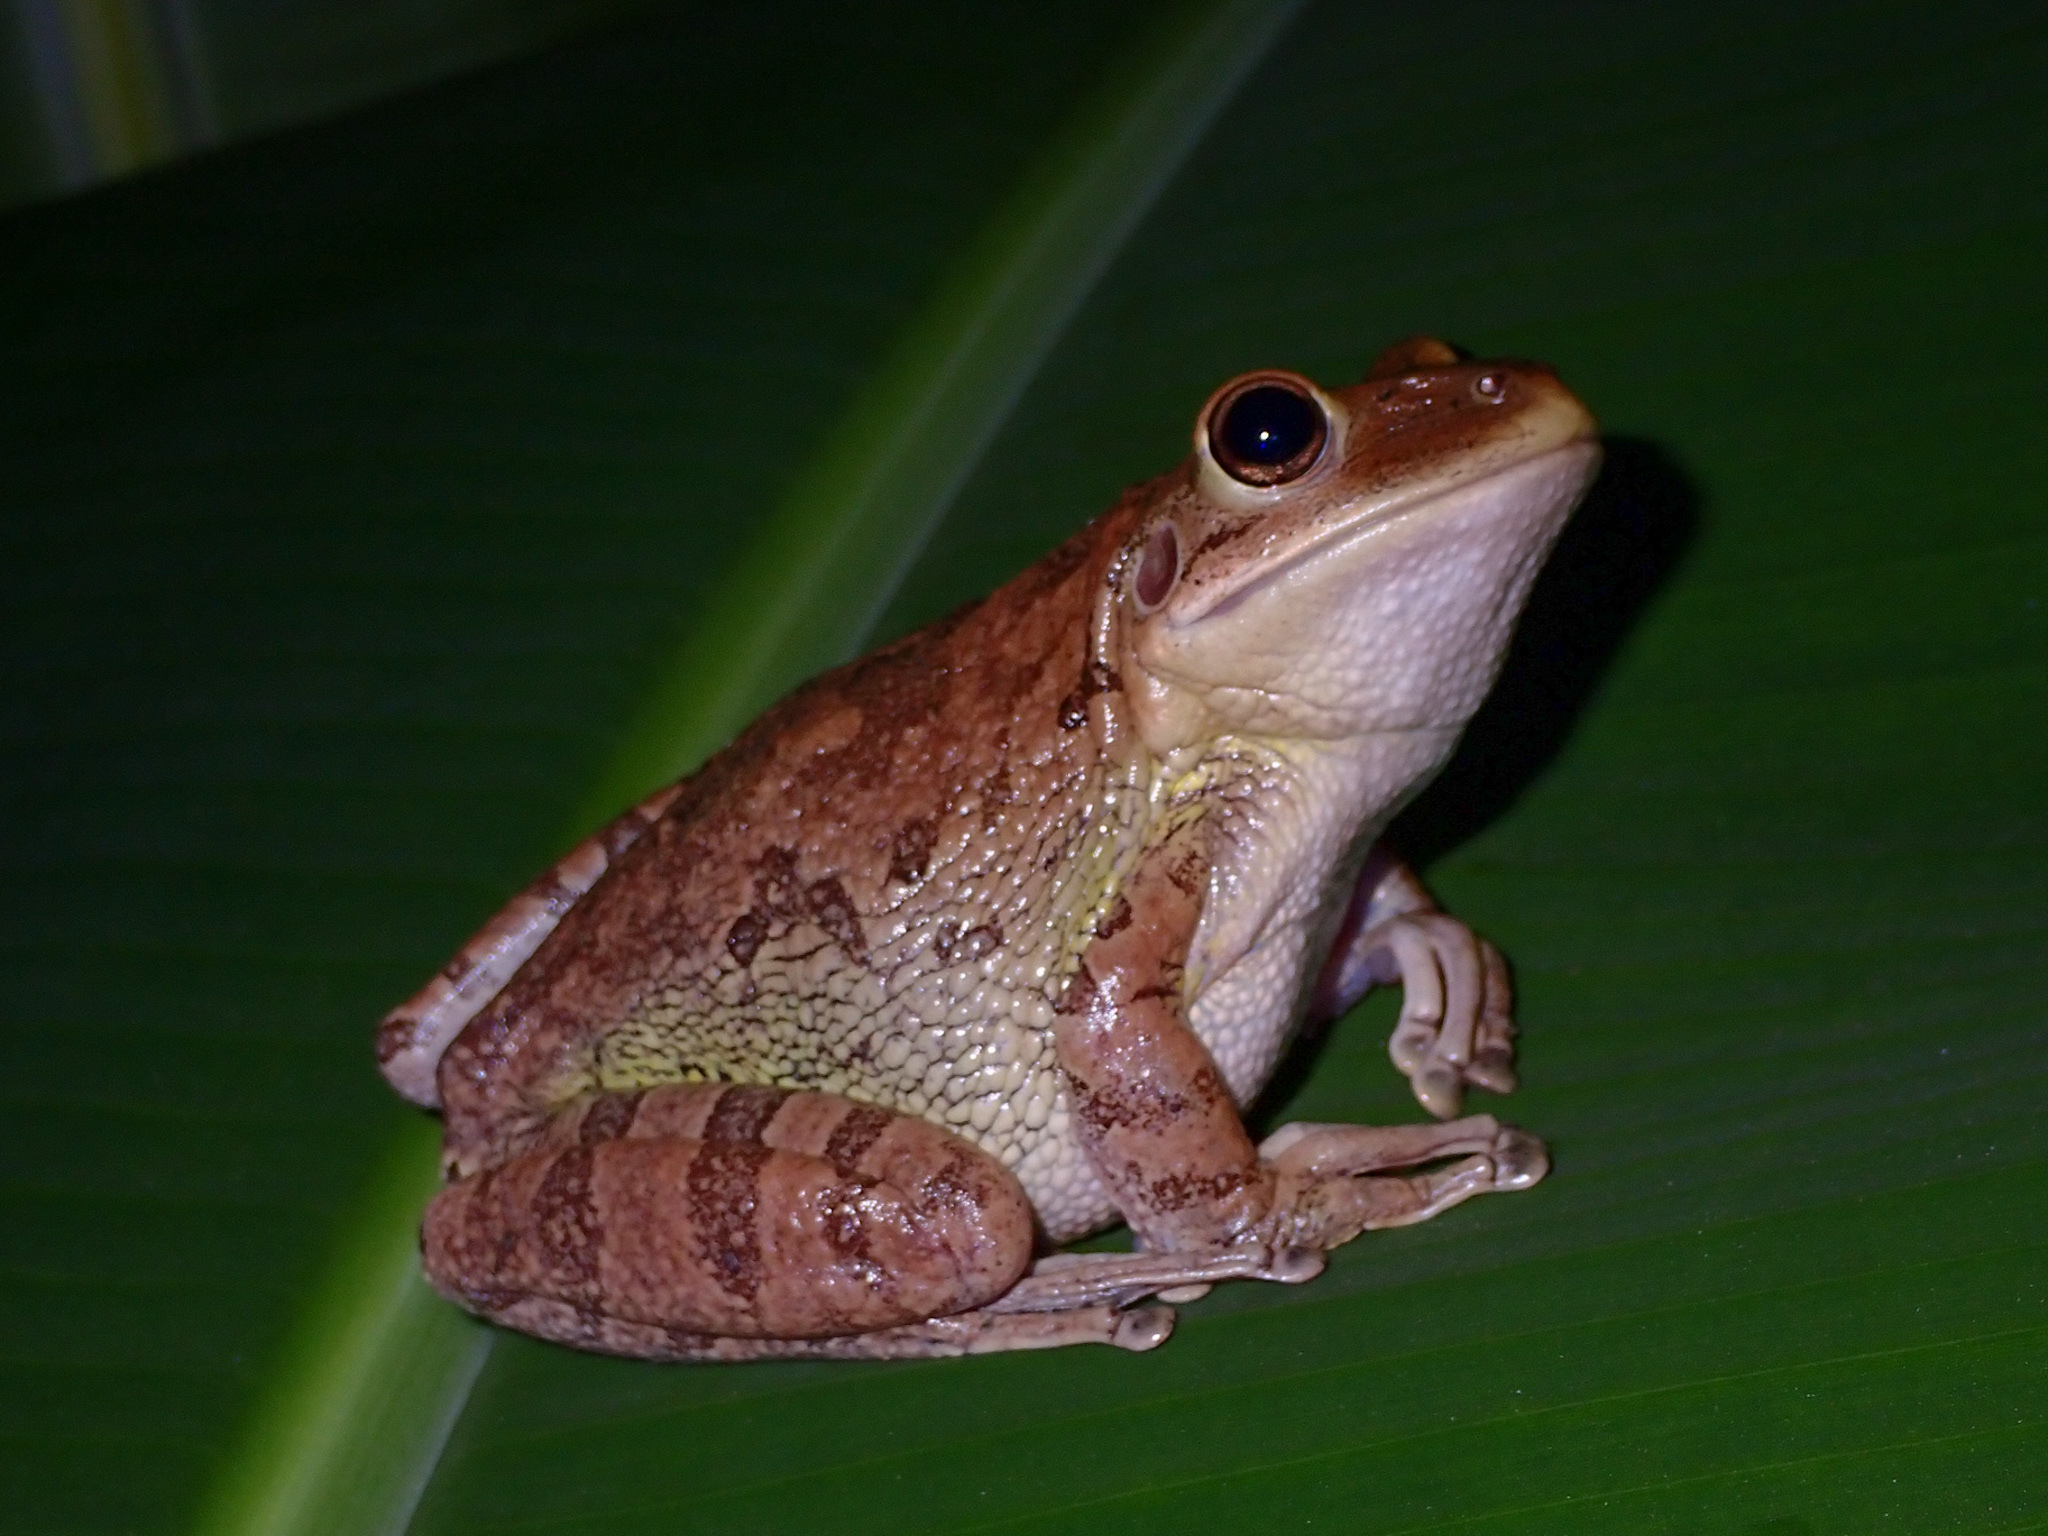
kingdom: Animalia
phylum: Chordata
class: Amphibia
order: Anura
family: Hylidae
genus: Osteopilus
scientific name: Osteopilus septentrionalis
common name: Cuban treefrog
